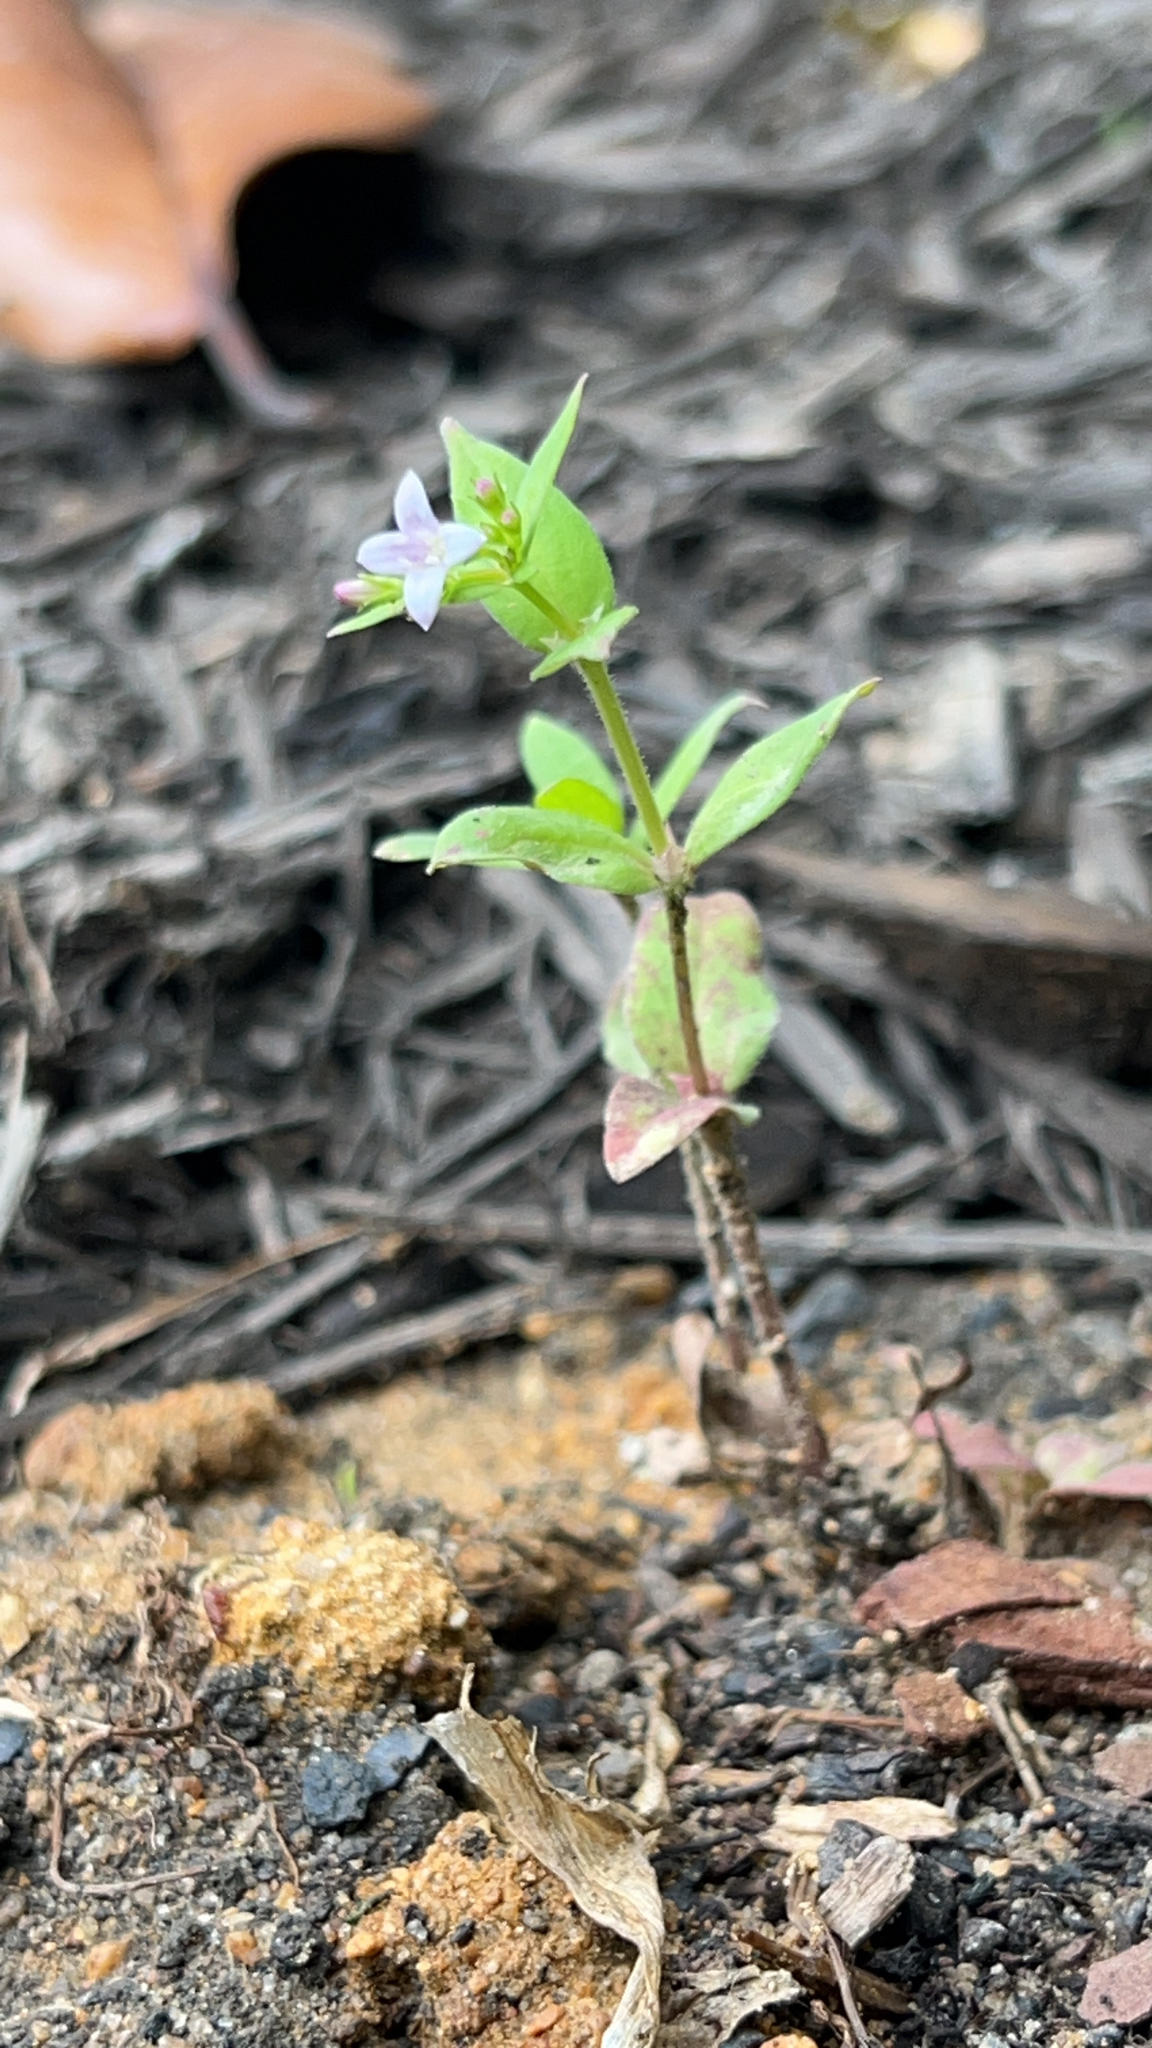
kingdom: Plantae
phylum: Tracheophyta
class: Magnoliopsida
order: Gentianales
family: Rubiaceae
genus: Houstonia
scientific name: Houstonia purpurea
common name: Summer bluet
